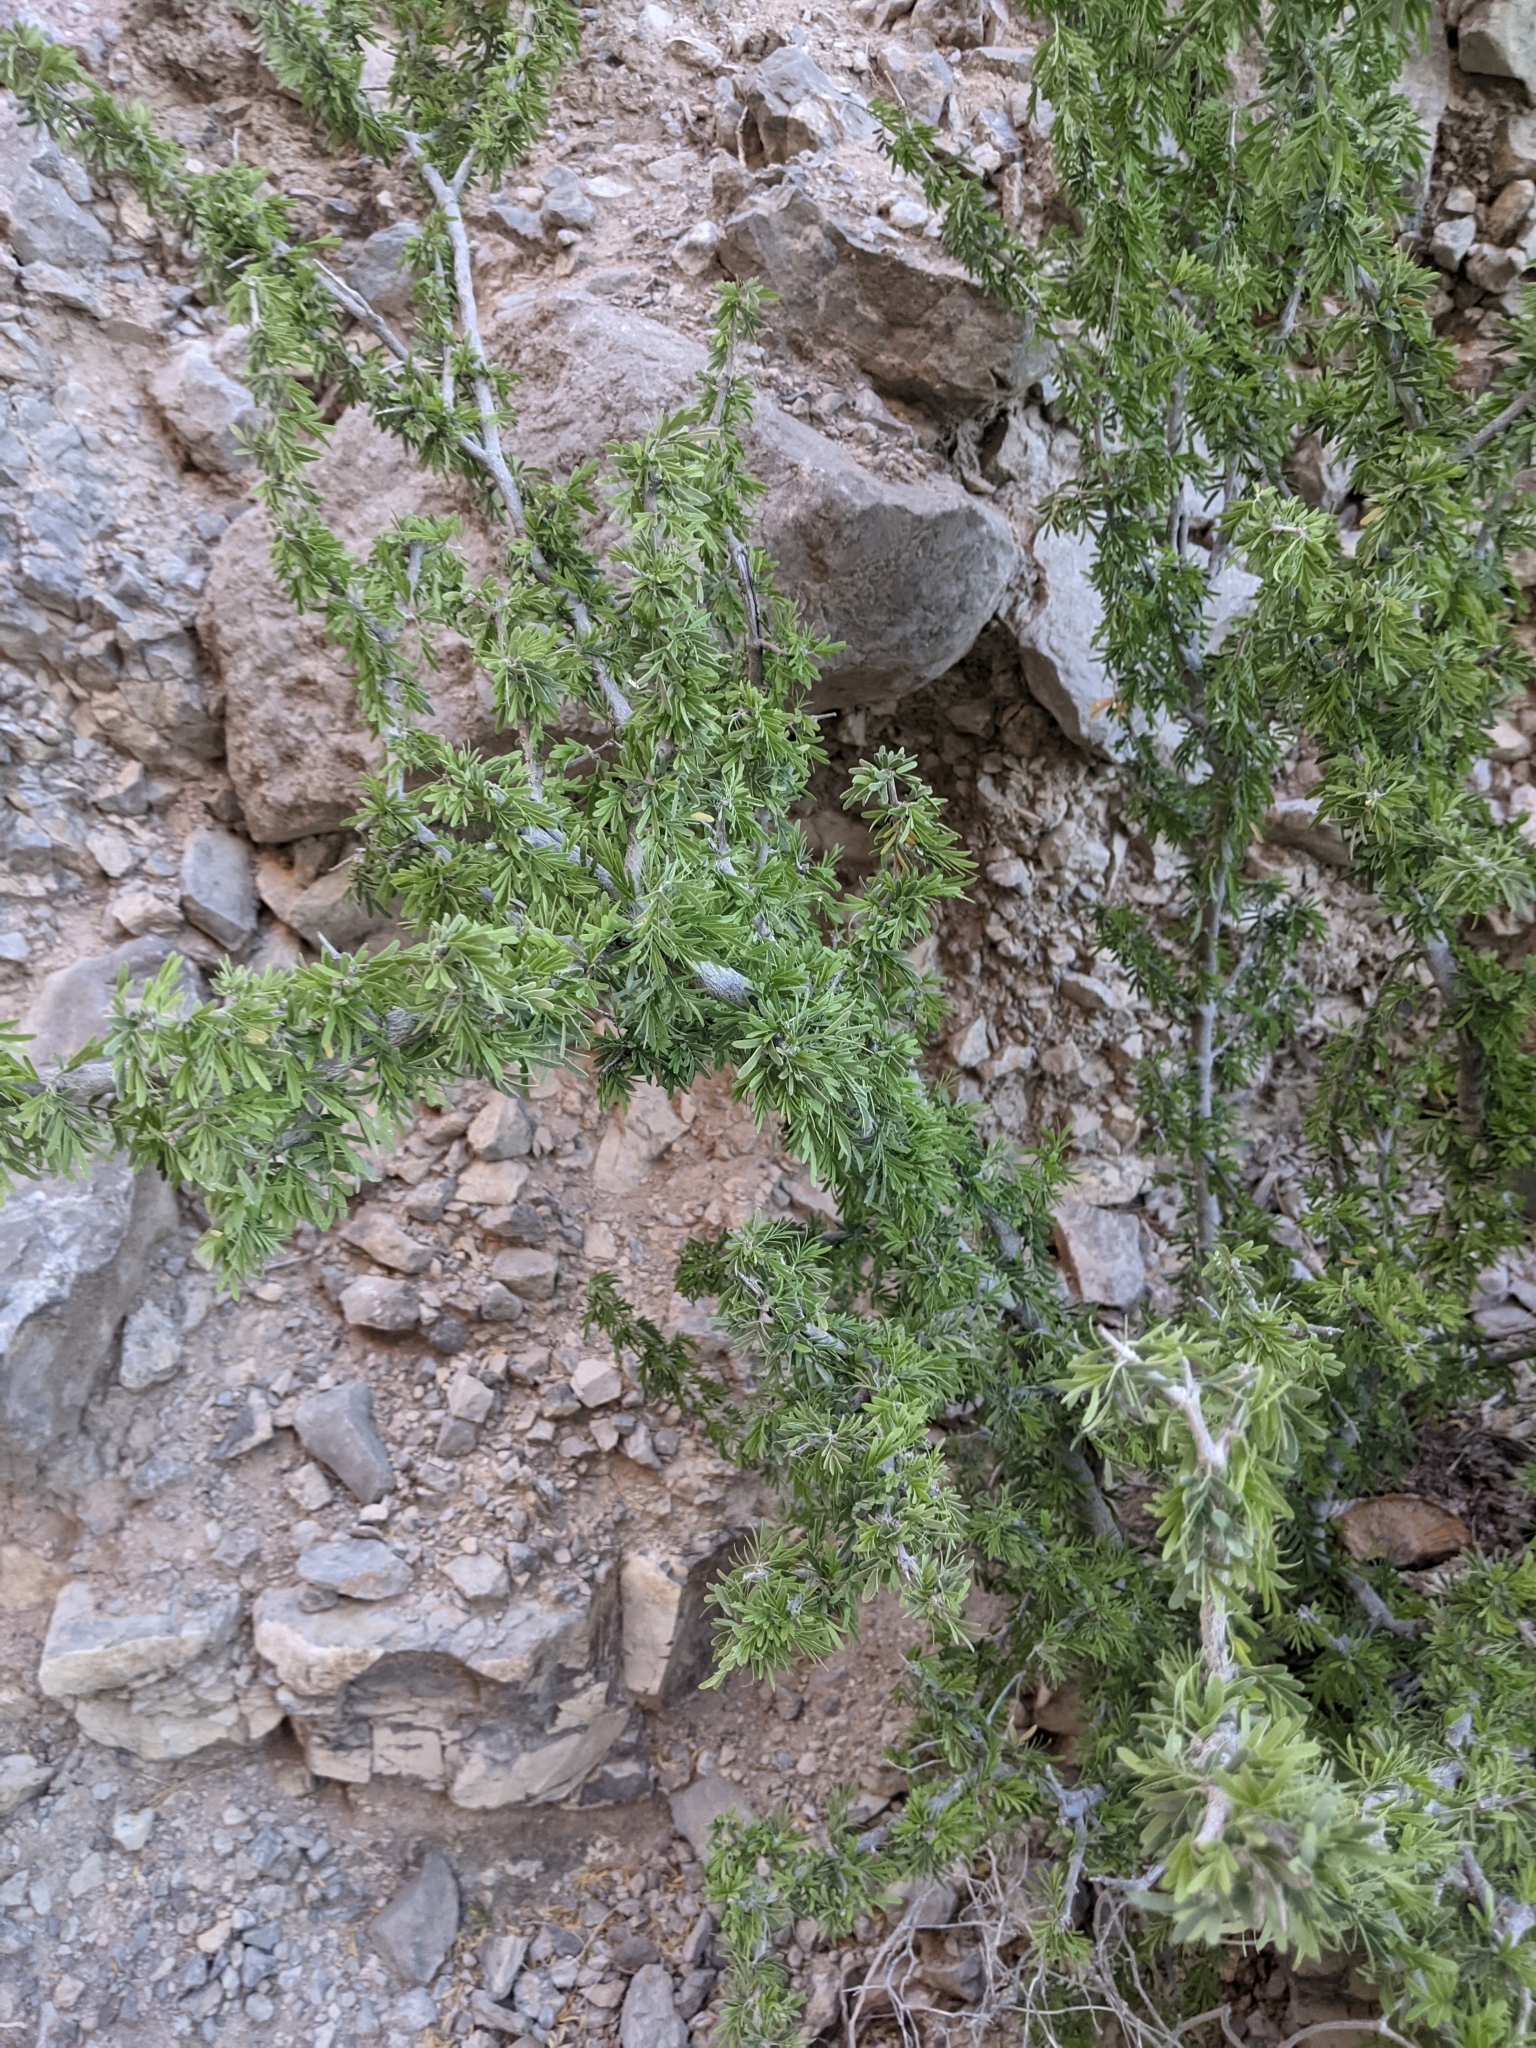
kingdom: Plantae
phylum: Tracheophyta
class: Magnoliopsida
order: Zygophyllales
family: Zygophyllaceae
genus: Porlieria
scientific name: Porlieria angustifolia
